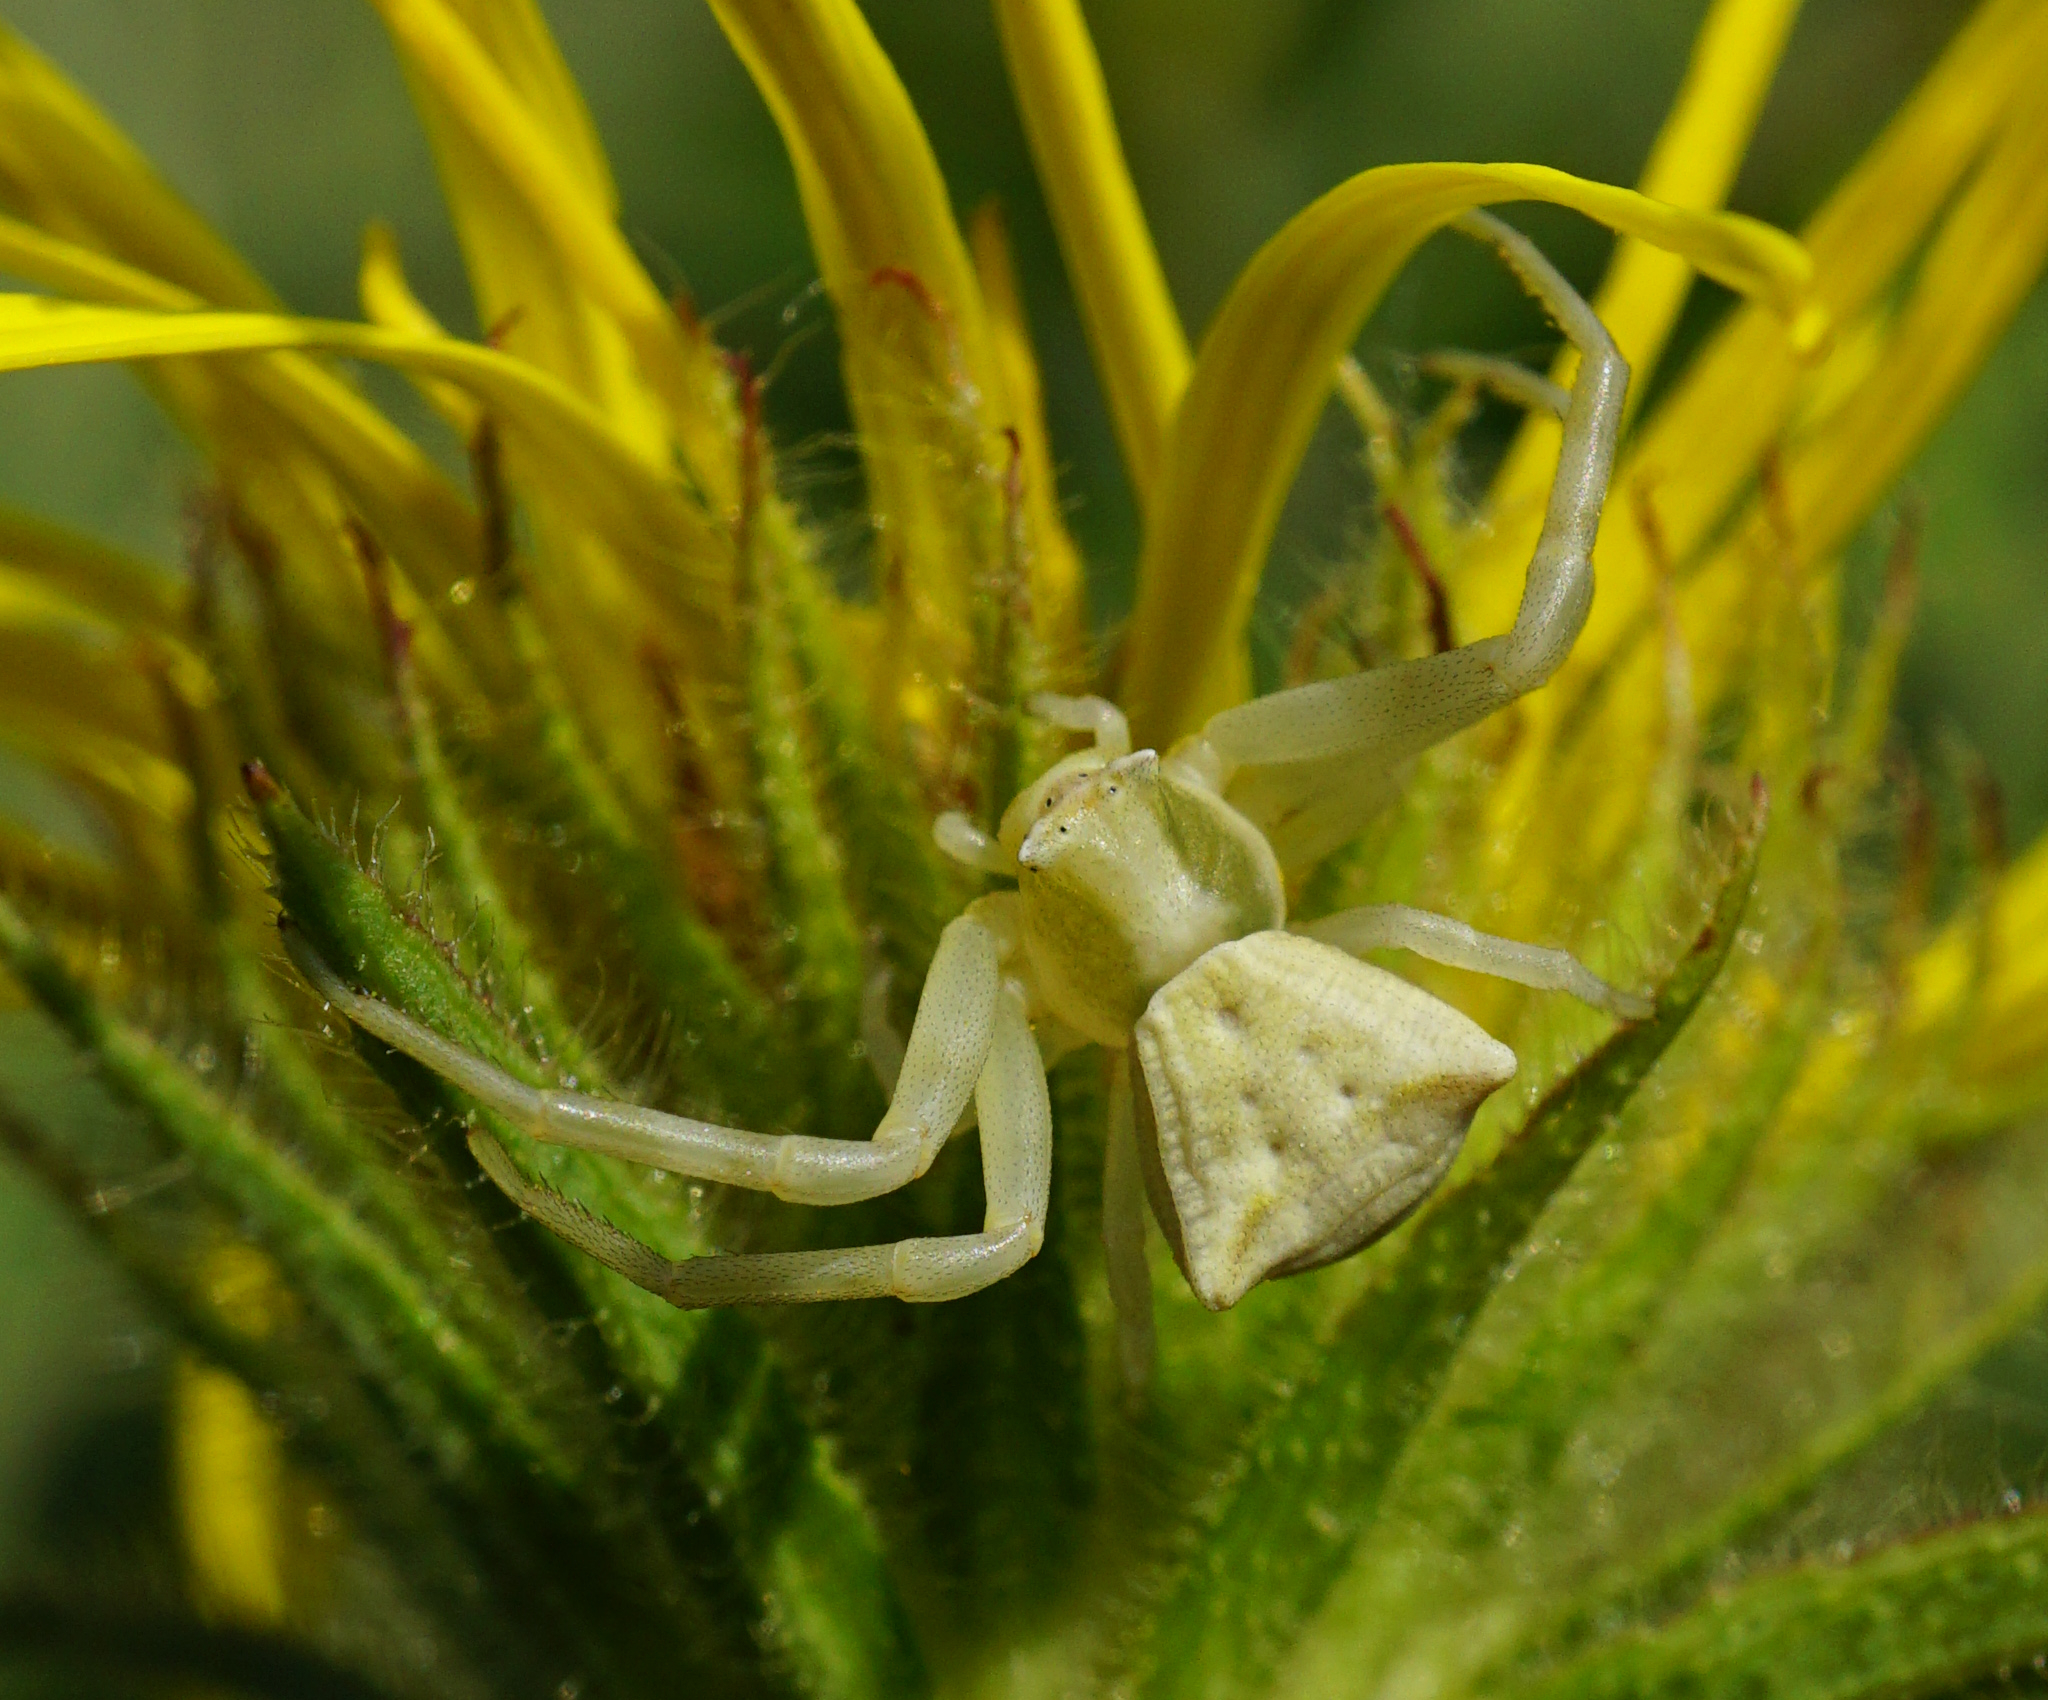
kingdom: Animalia
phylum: Arthropoda
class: Arachnida
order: Araneae
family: Thomisidae
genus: Thomisus
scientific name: Thomisus onustus
